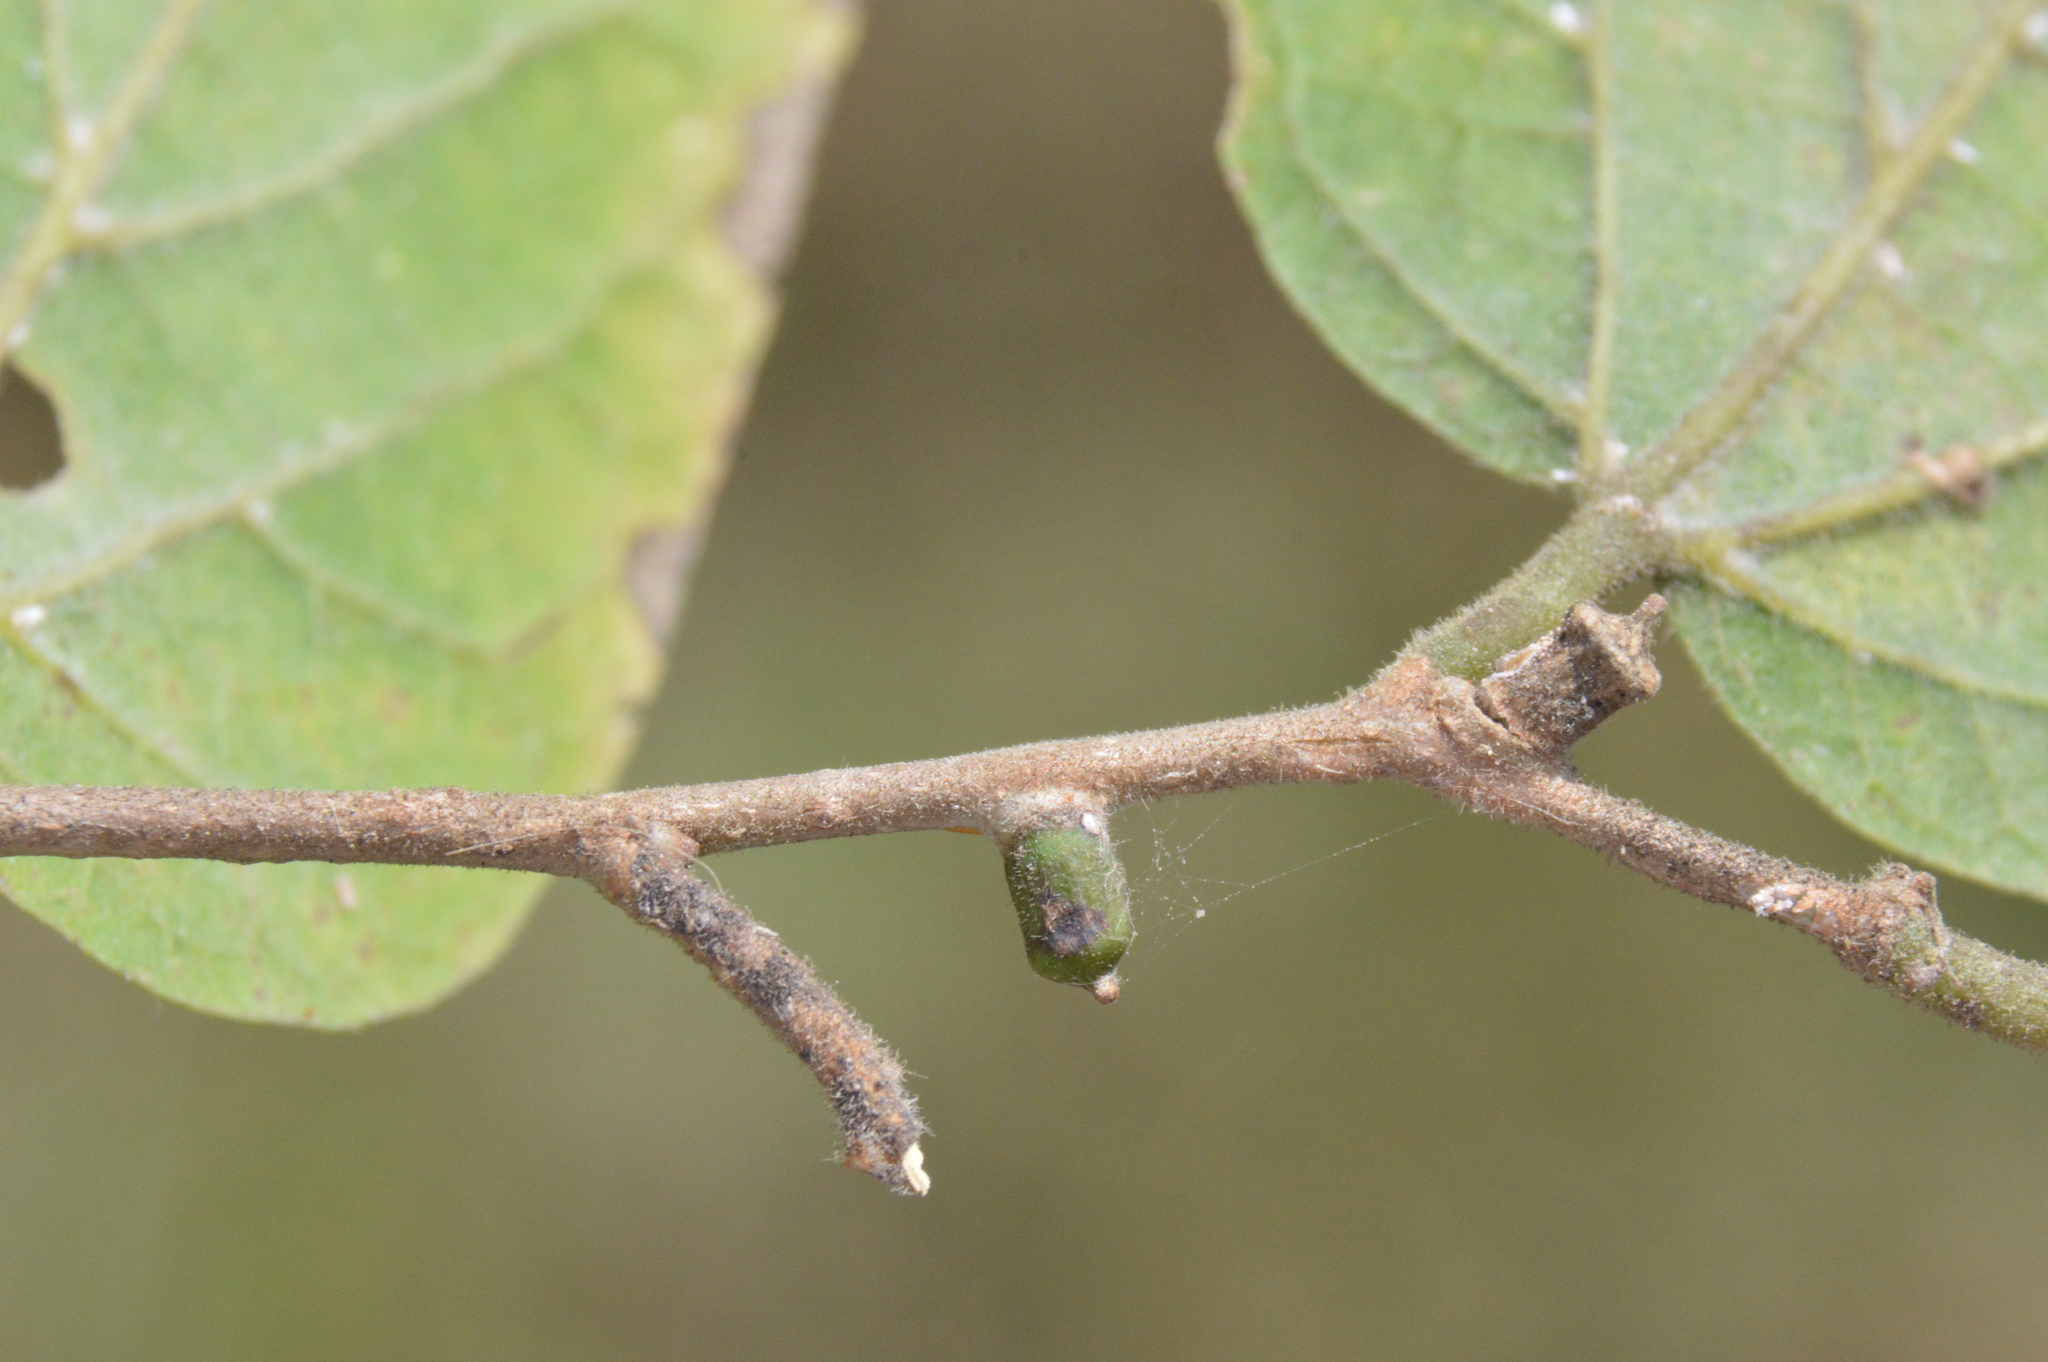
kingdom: Animalia
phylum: Arthropoda
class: Insecta
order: Diptera
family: Cecidomyiidae
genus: Celticecis
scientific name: Celticecis ramicola
